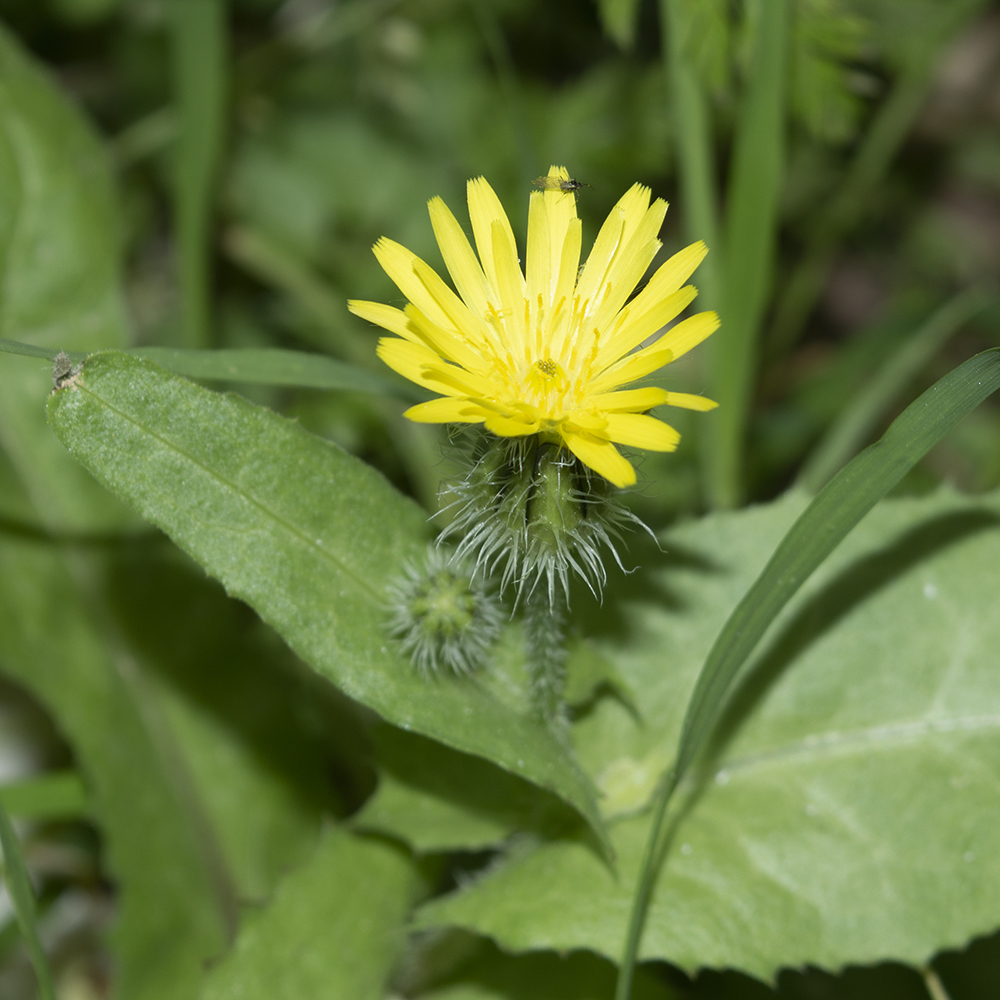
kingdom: Plantae
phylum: Tracheophyta
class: Magnoliopsida
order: Asterales
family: Asteraceae
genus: Urospermum
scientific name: Urospermum picroides
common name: False hawkbit
